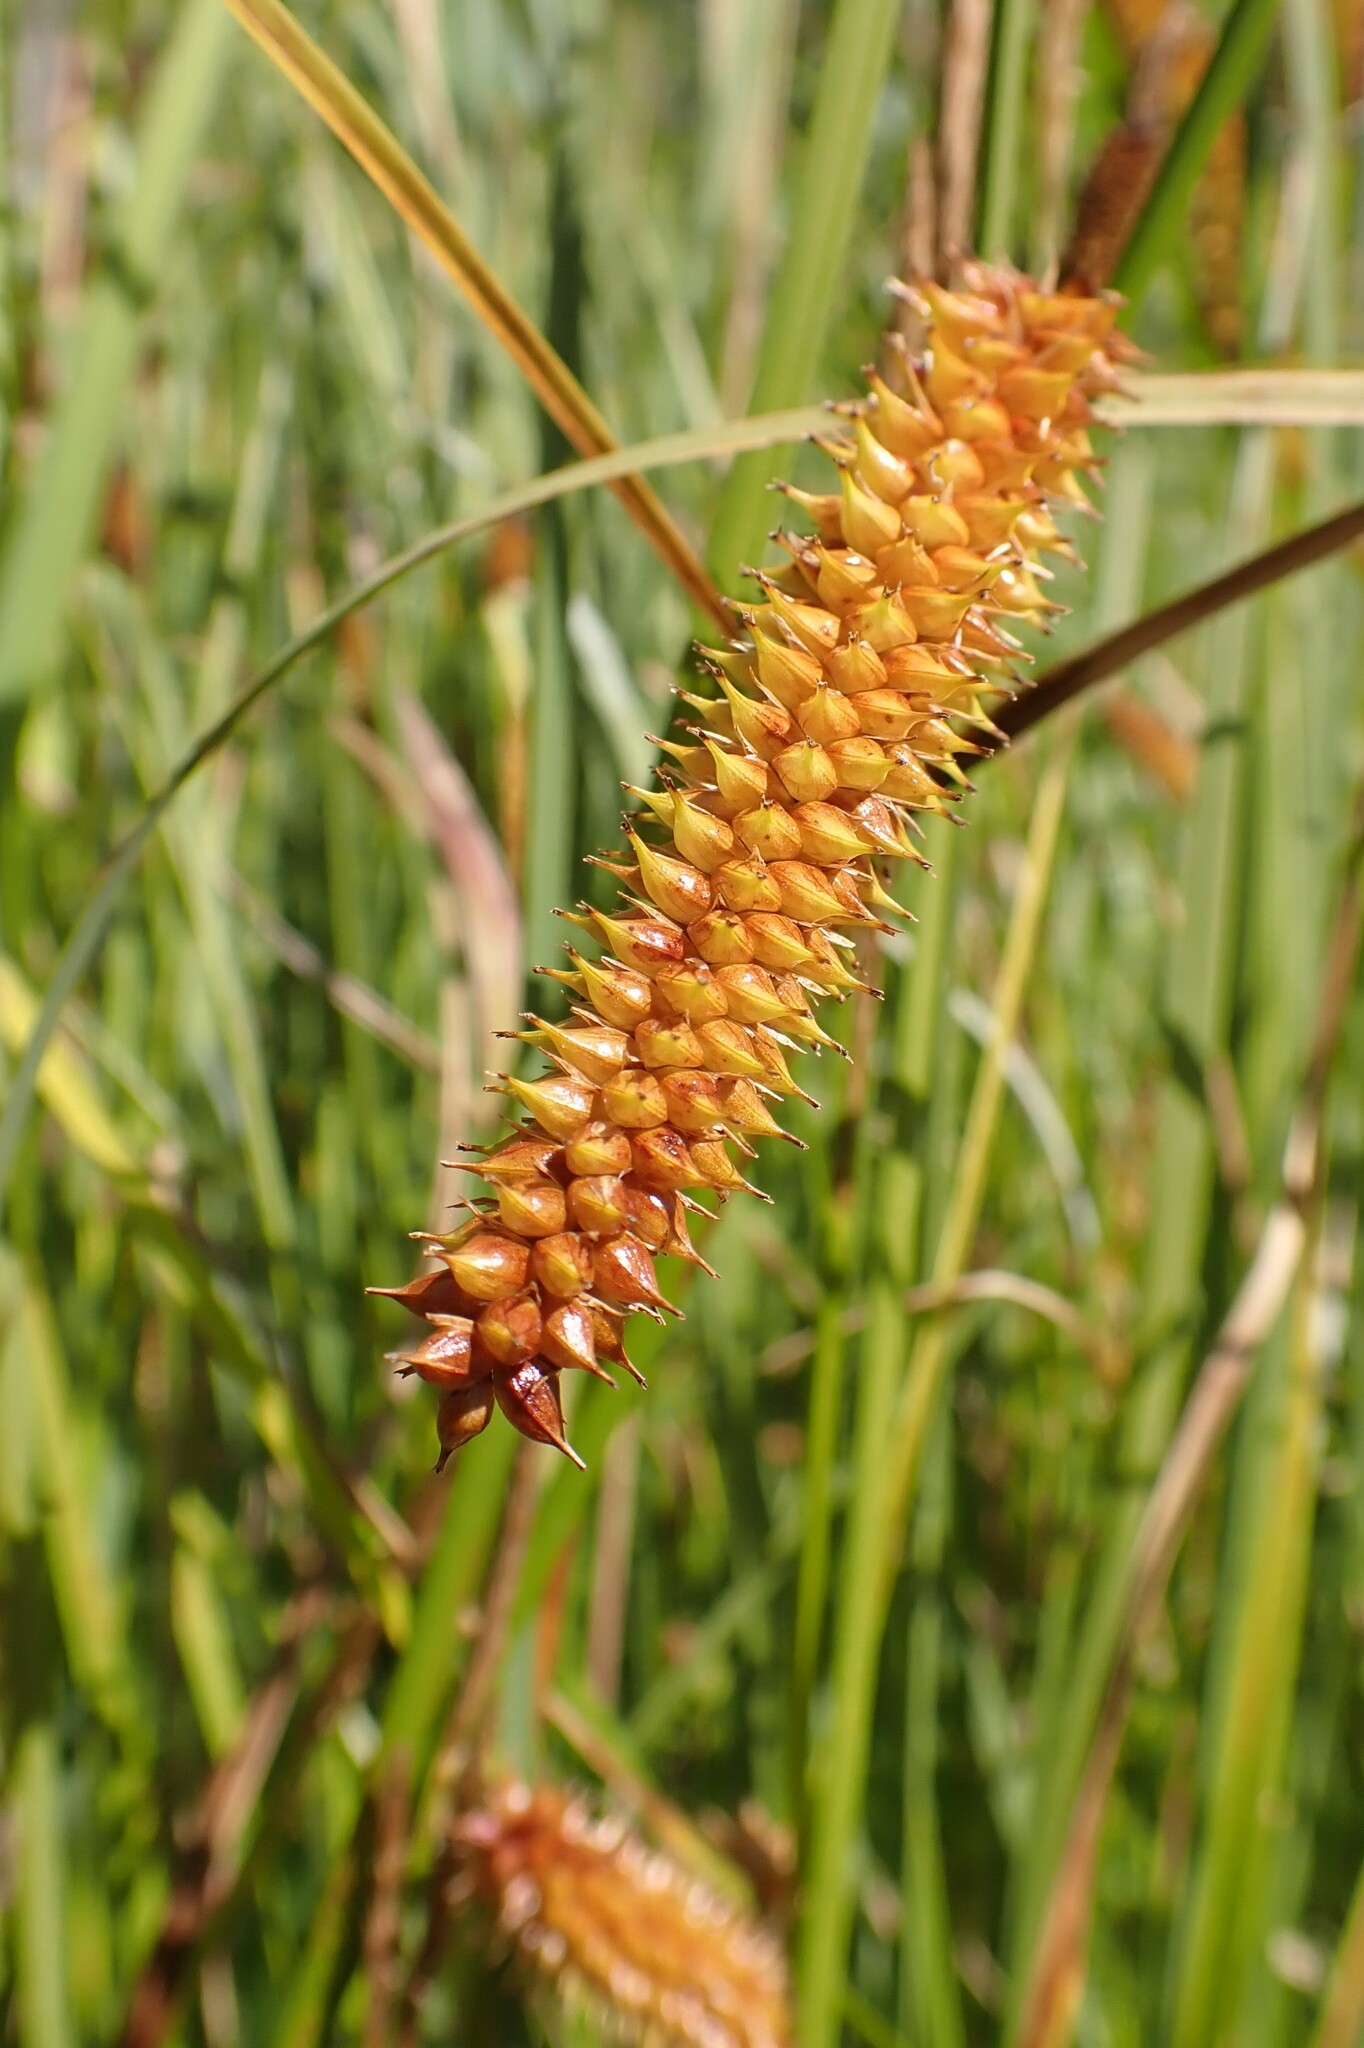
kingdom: Plantae
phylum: Tracheophyta
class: Liliopsida
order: Poales
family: Cyperaceae
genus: Carex
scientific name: Carex utriculata
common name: Beaked sedge
